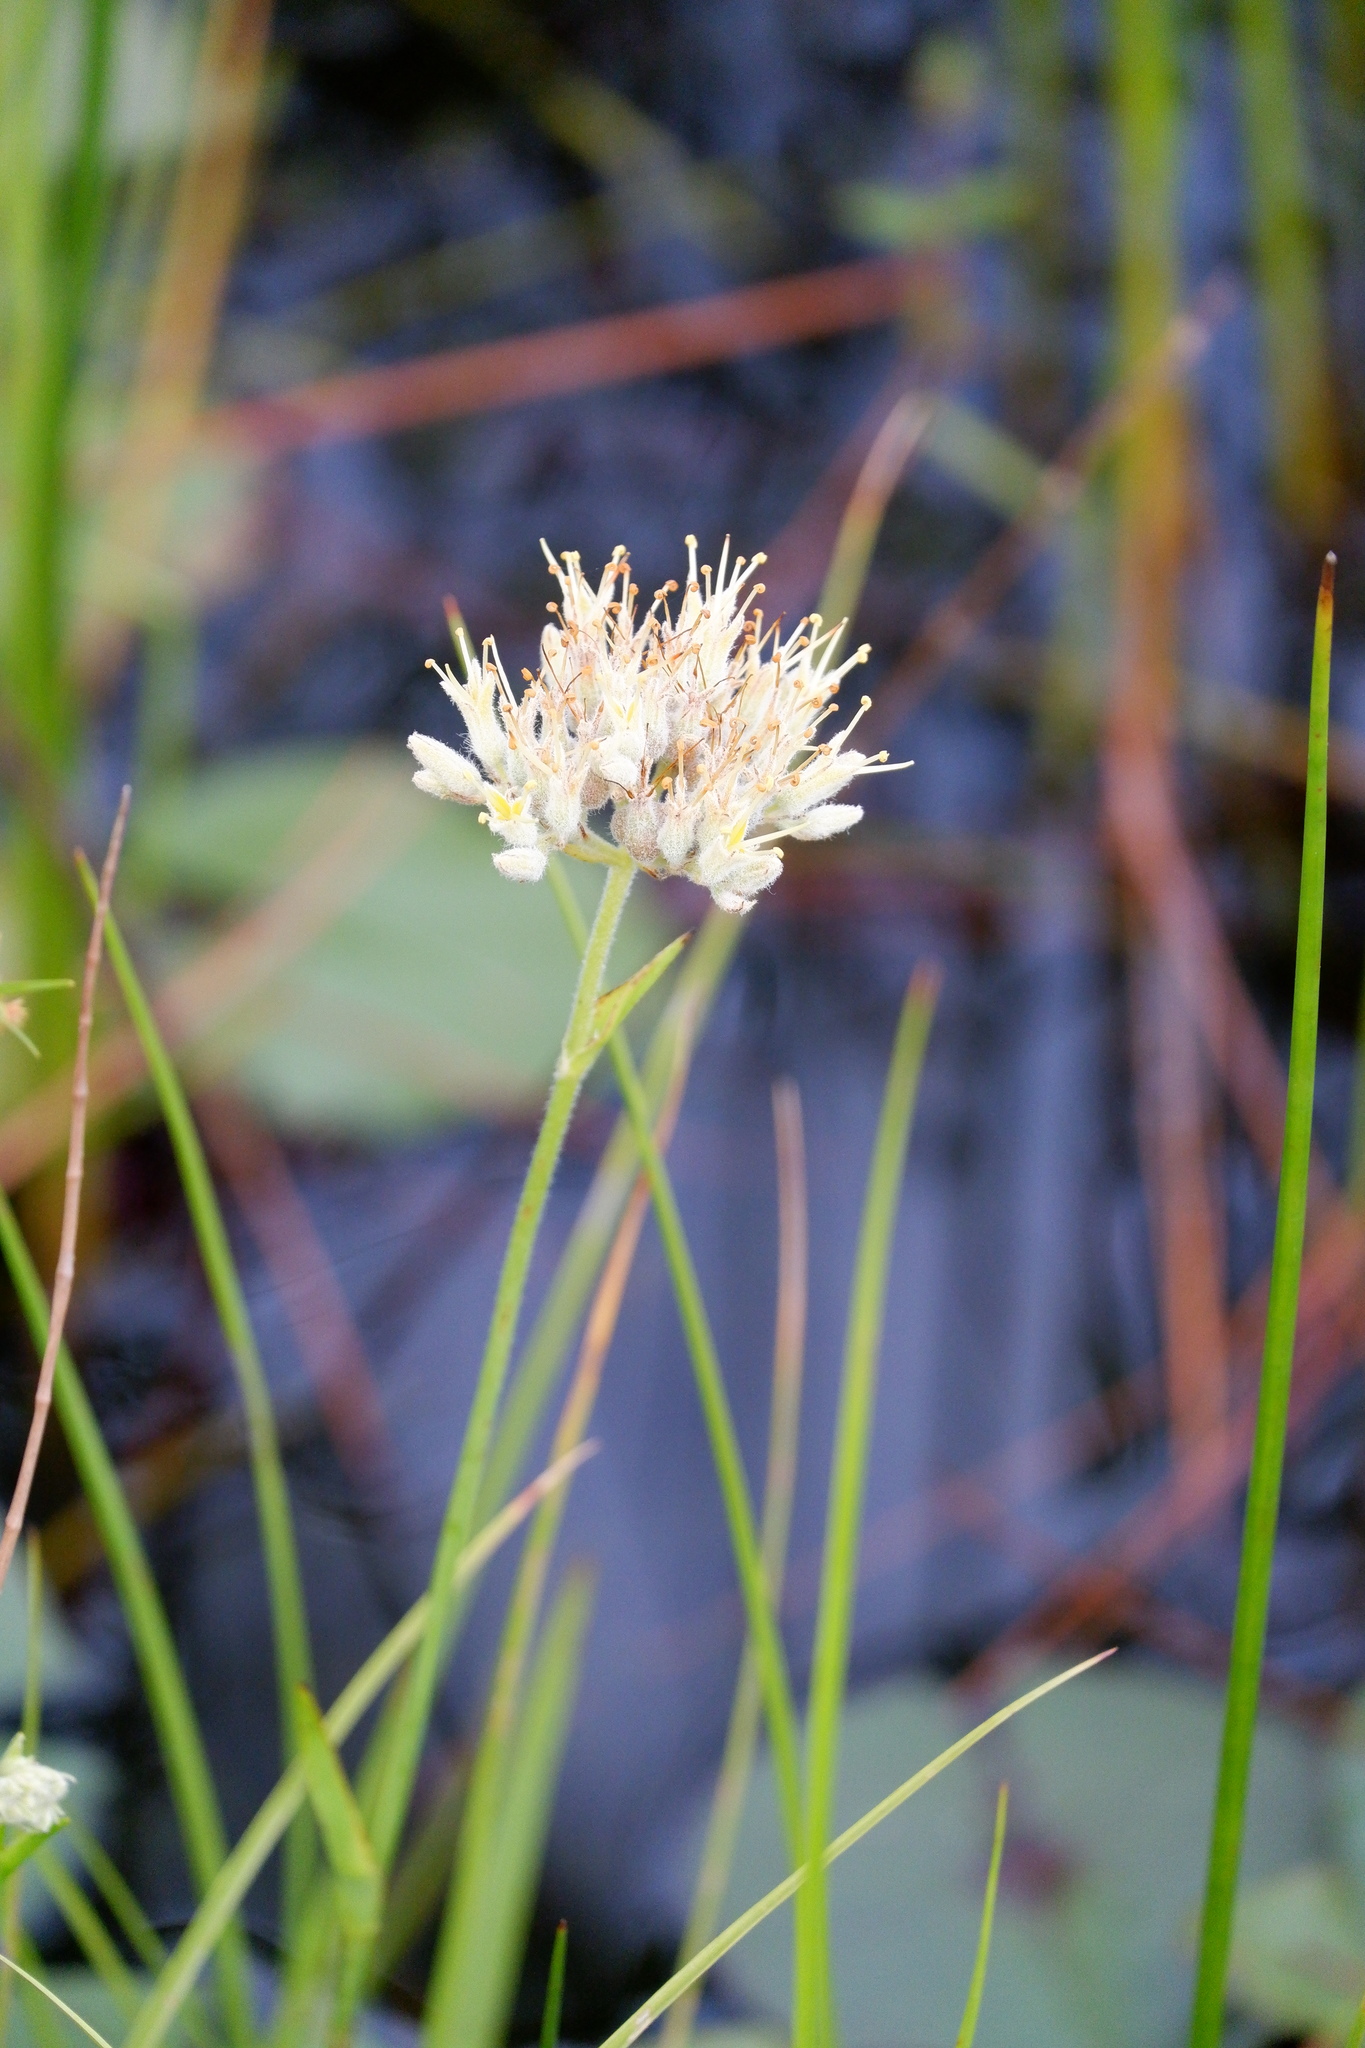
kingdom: Plantae
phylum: Tracheophyta
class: Liliopsida
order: Commelinales
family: Haemodoraceae
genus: Lachnanthes
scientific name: Lachnanthes caroliana
